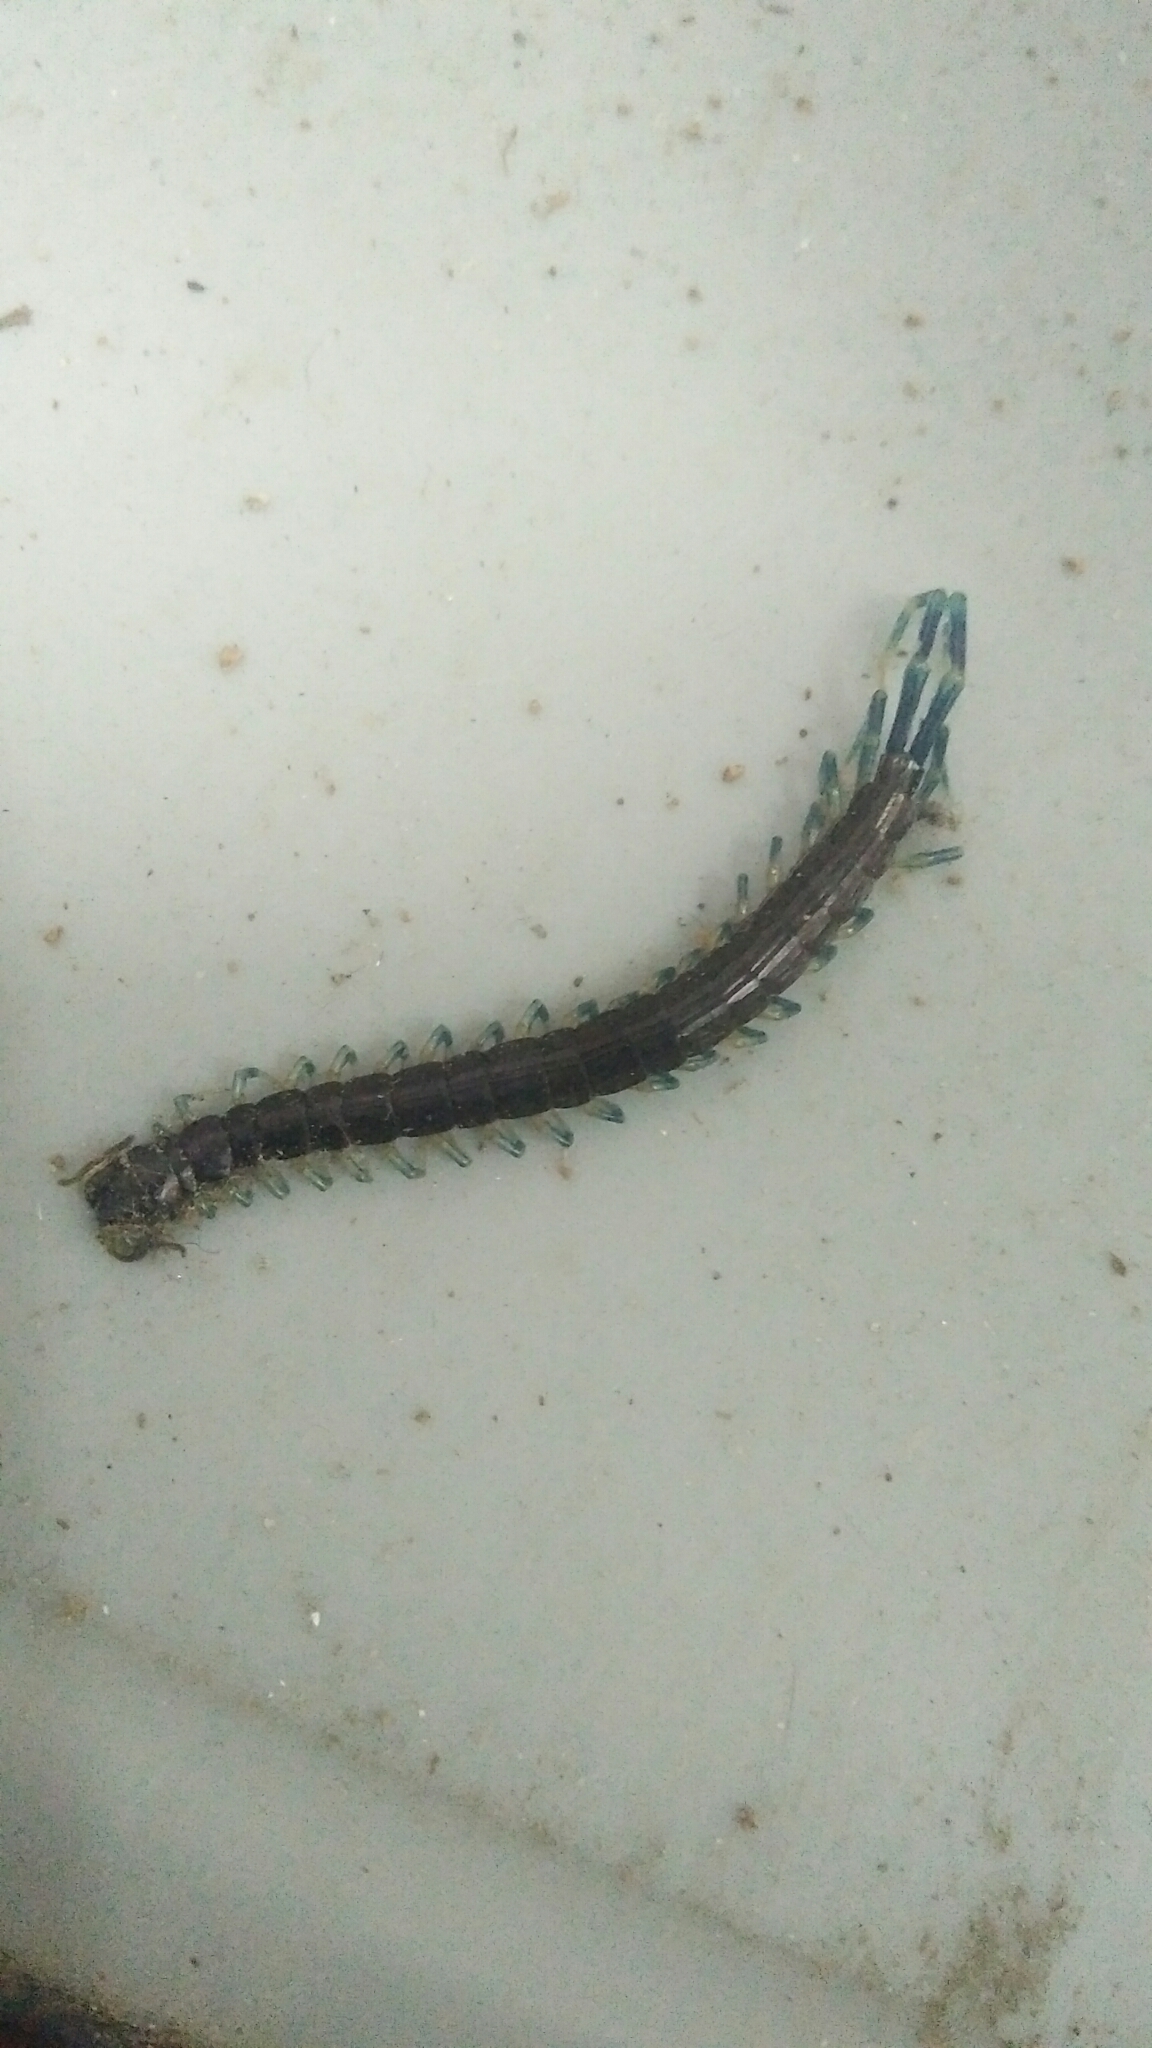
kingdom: Animalia
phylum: Arthropoda
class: Chilopoda
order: Scolopendromorpha
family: Scolopendridae
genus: Otostigmus
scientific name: Otostigmus scaber
